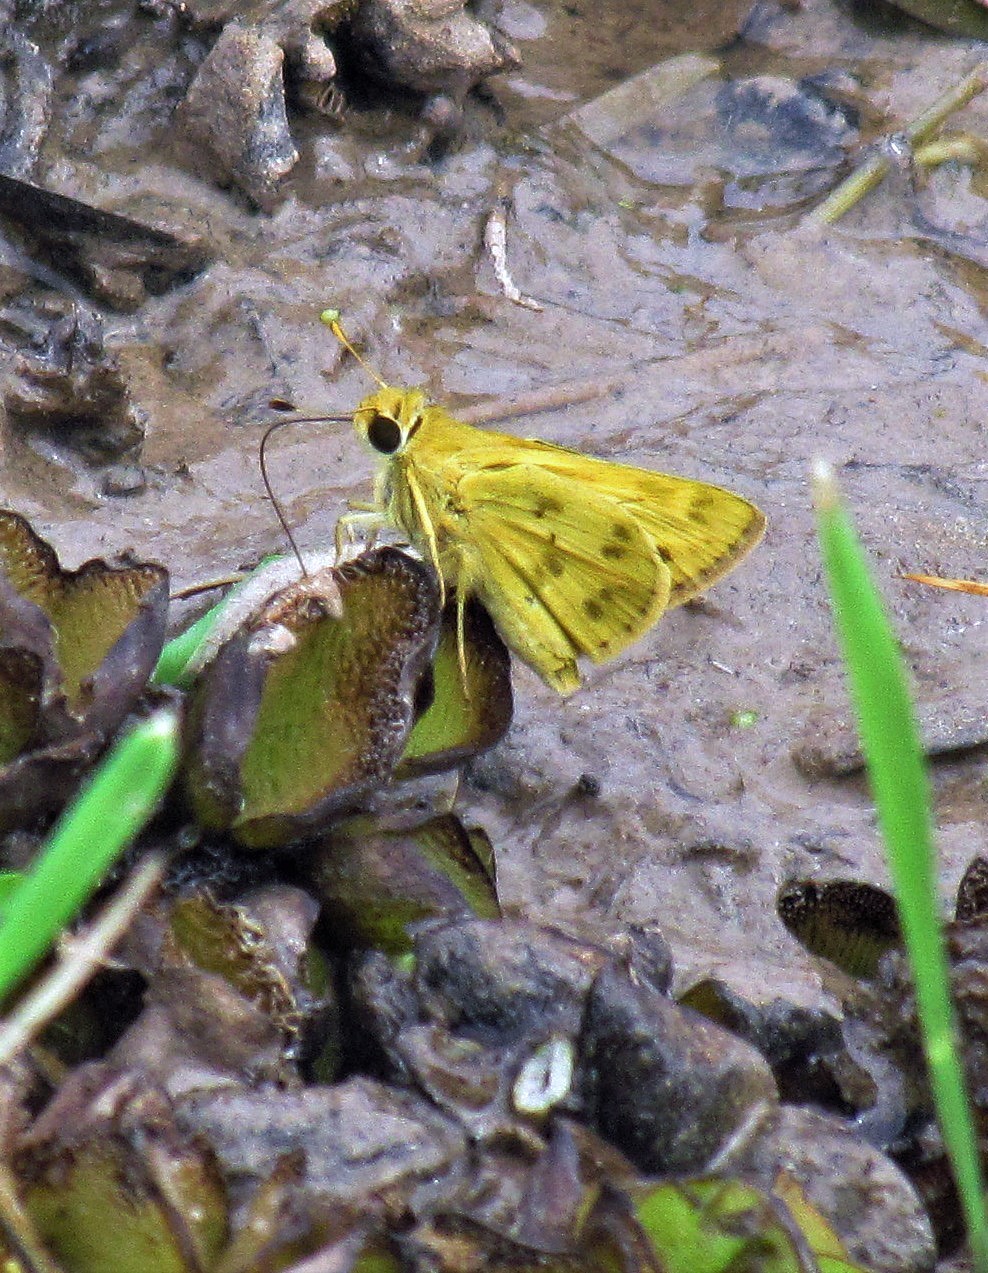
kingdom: Animalia
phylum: Arthropoda
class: Insecta
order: Lepidoptera
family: Hesperiidae
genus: Polites
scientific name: Polites vibex
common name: Whirlabout
